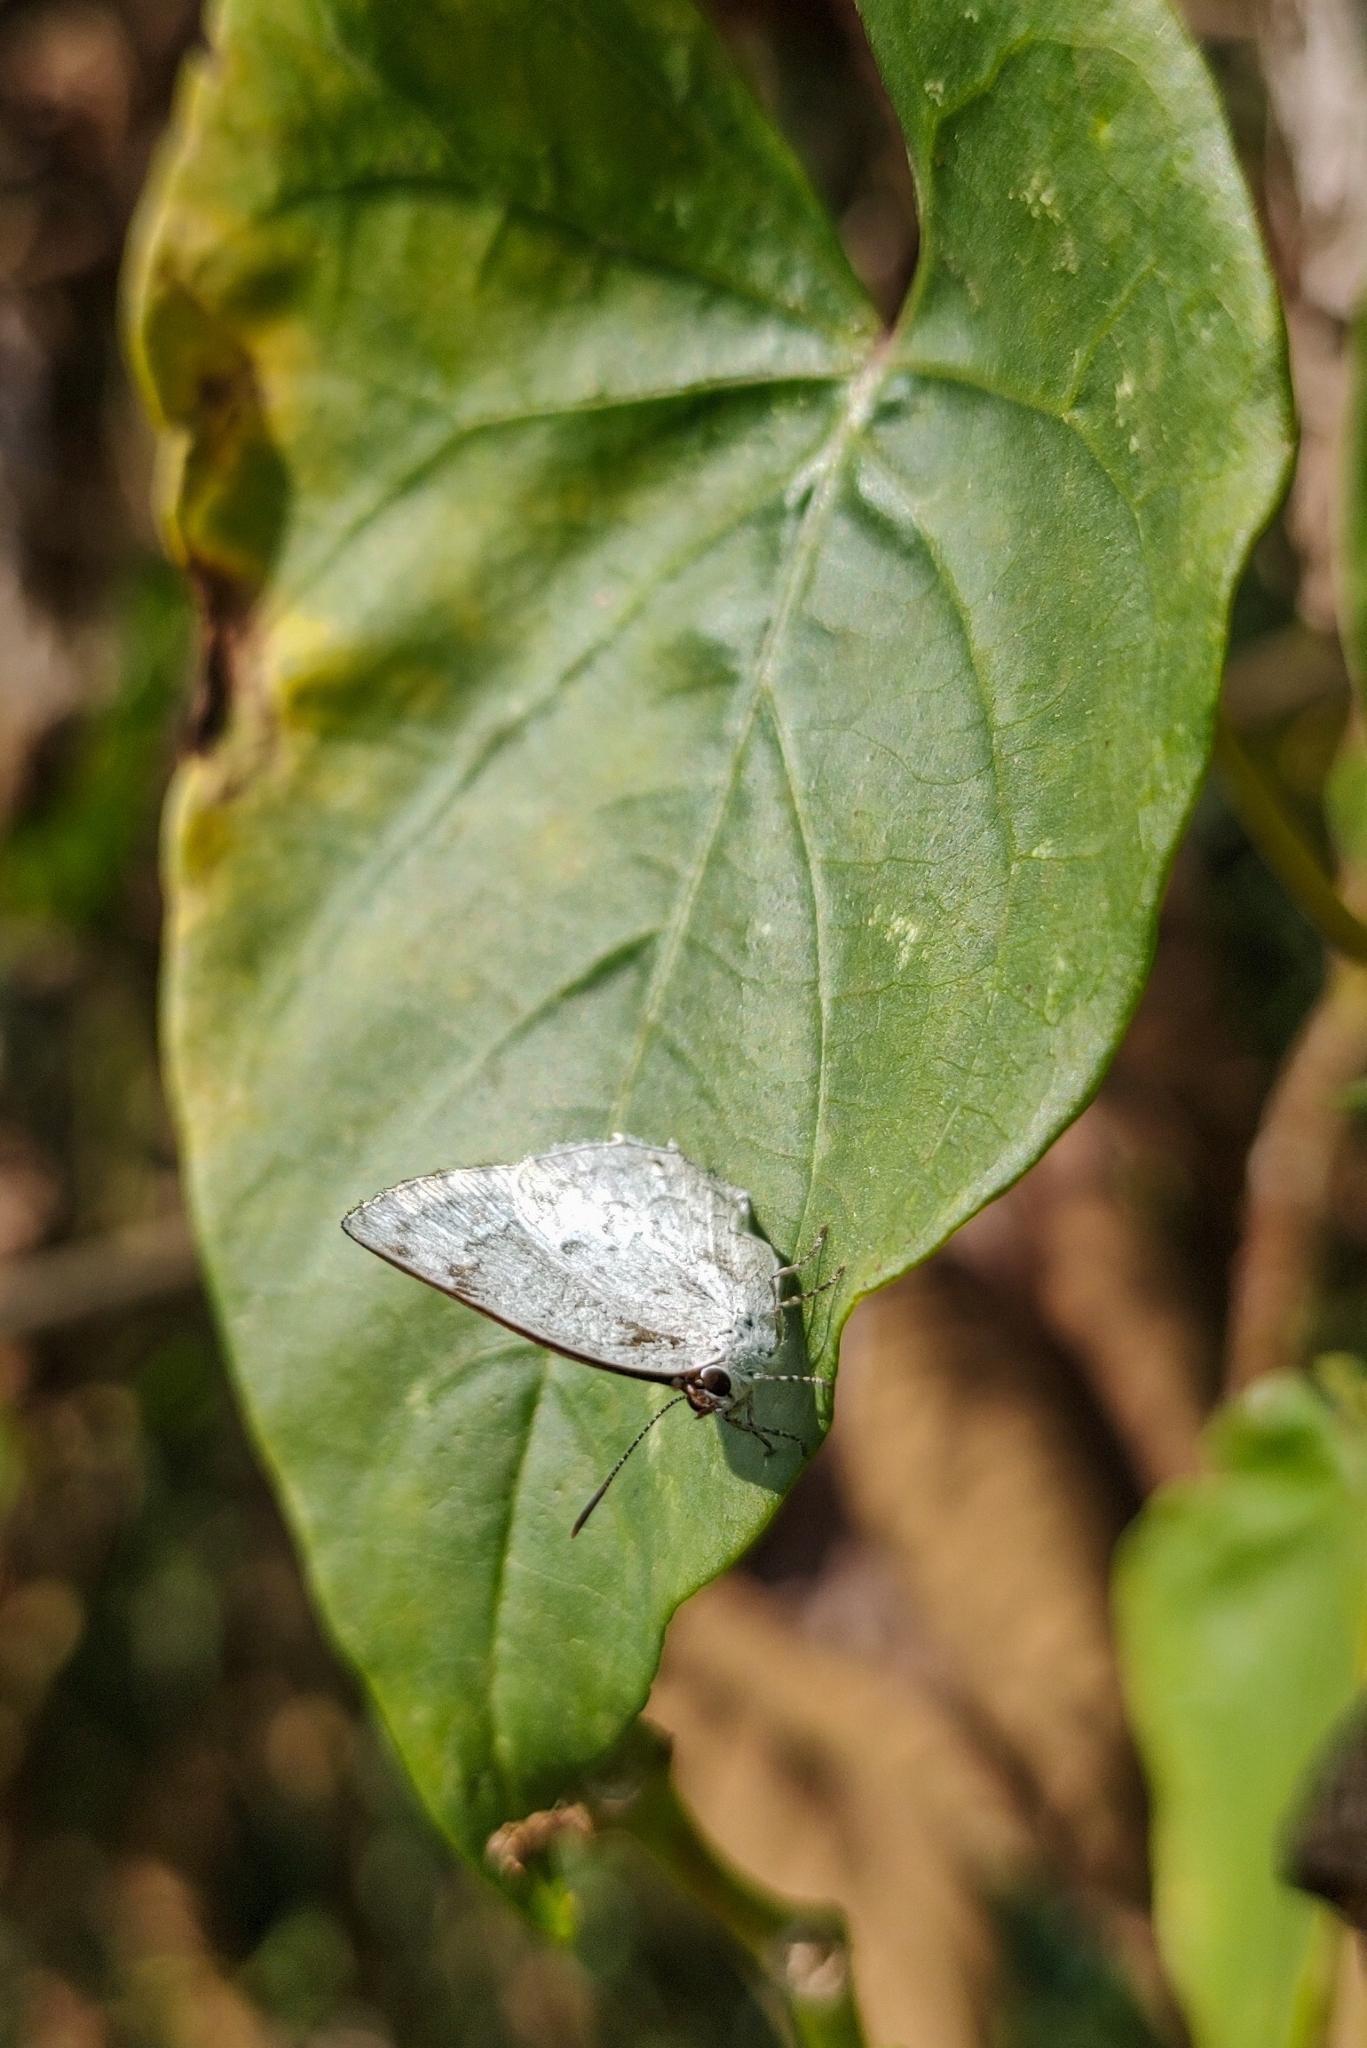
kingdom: Animalia
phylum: Arthropoda
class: Insecta
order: Lepidoptera
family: Lycaenidae
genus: Ostrinotes
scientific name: Ostrinotes
